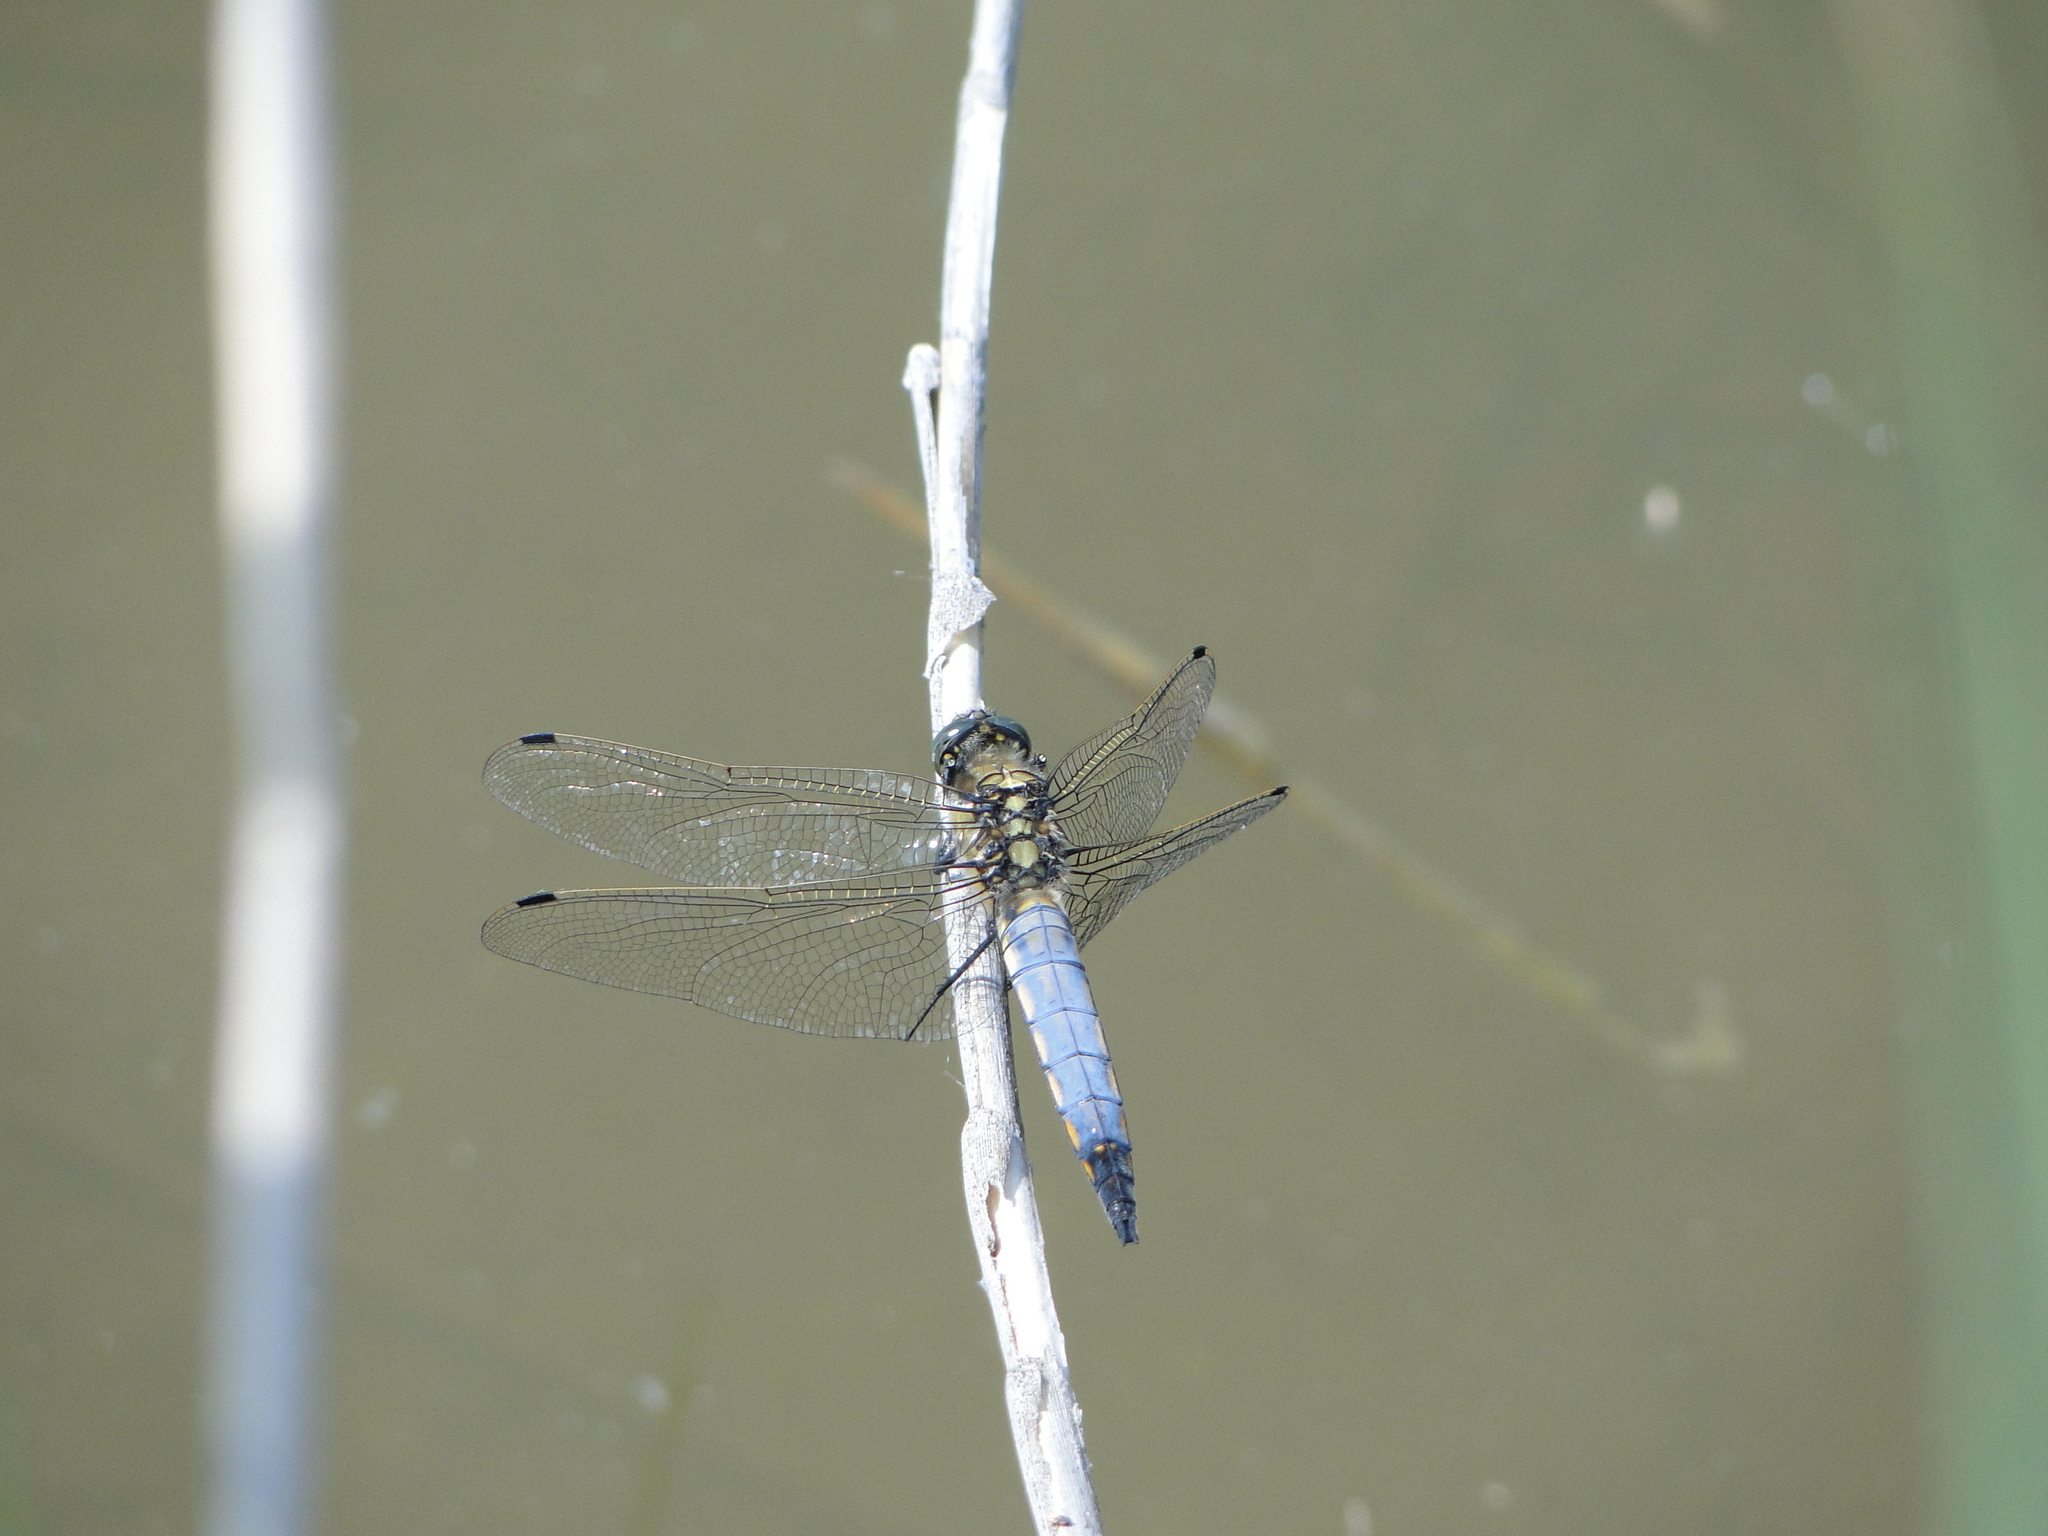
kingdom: Animalia
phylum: Arthropoda
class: Insecta
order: Odonata
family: Libellulidae
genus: Orthetrum
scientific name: Orthetrum cancellatum
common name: Black-tailed skimmer
